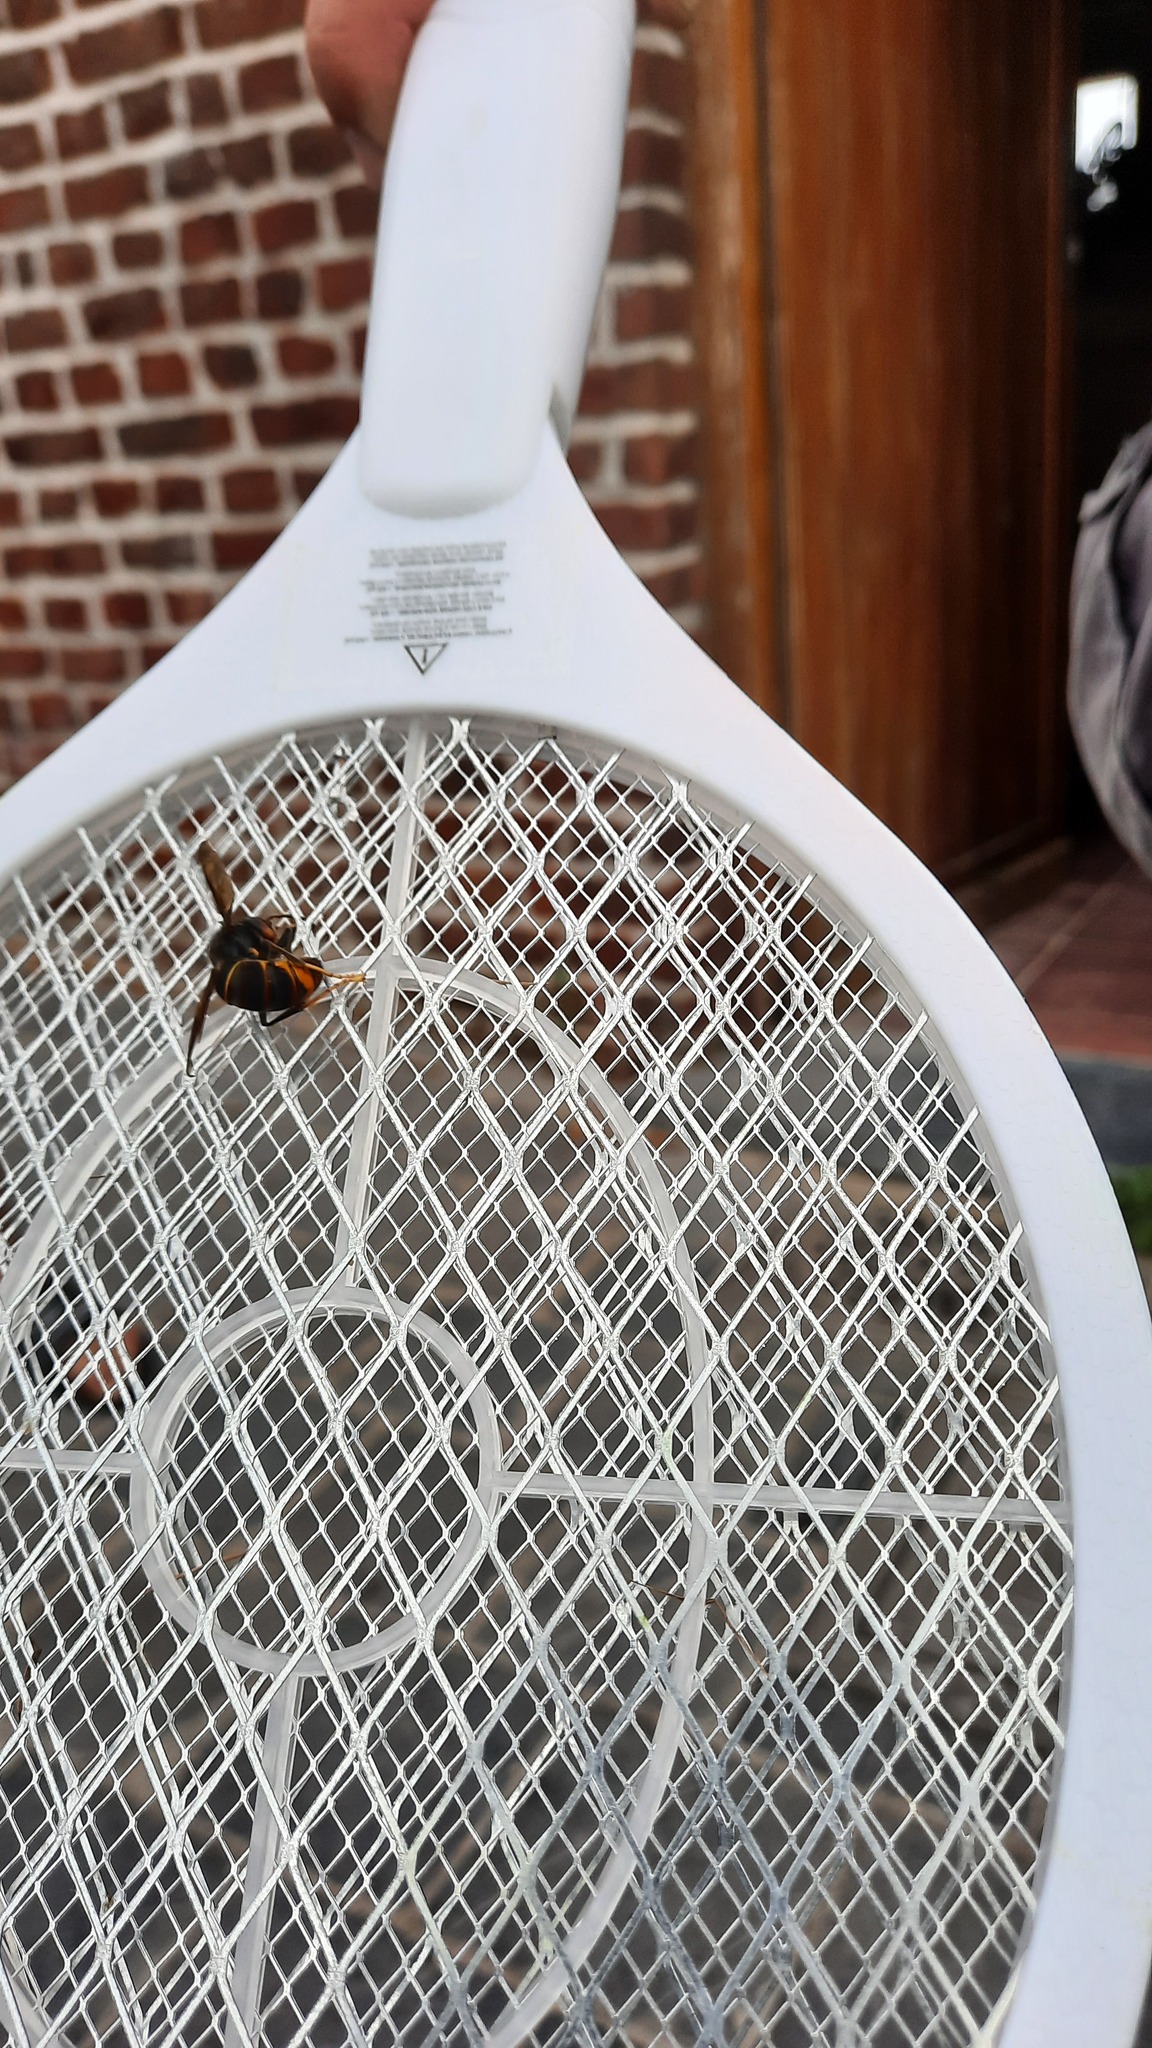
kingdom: Animalia
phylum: Arthropoda
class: Insecta
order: Hymenoptera
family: Vespidae
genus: Vespa
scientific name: Vespa velutina
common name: Asian hornet
